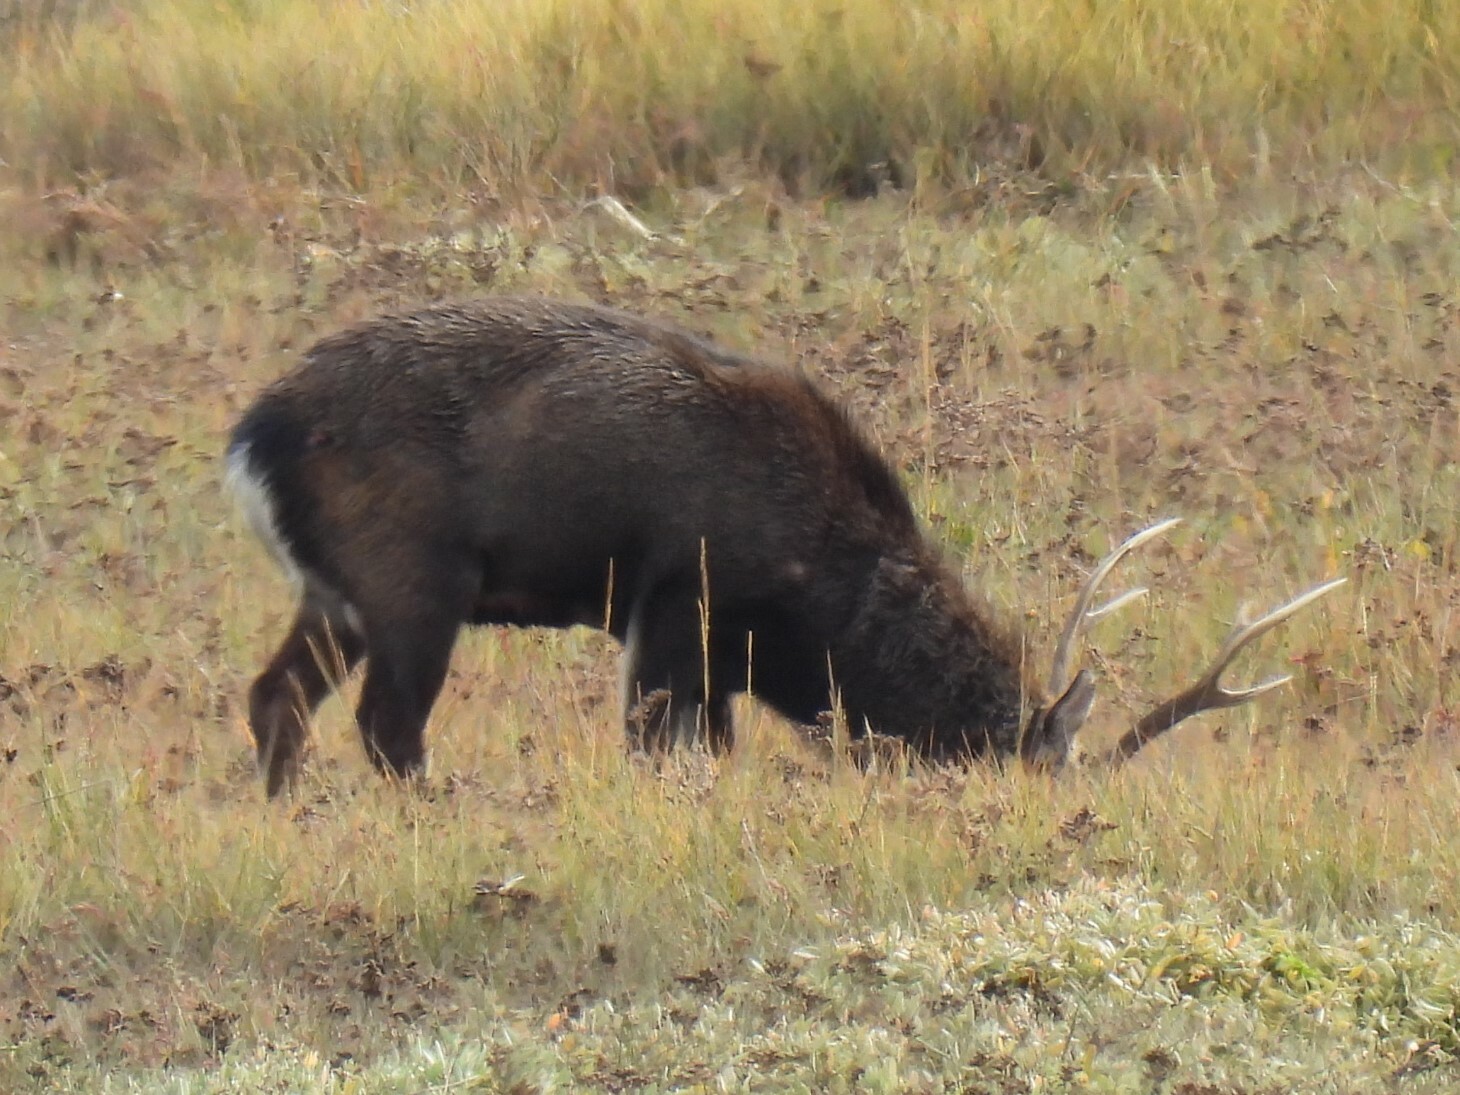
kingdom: Animalia
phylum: Chordata
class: Mammalia
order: Artiodactyla
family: Cervidae
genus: Cervus
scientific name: Cervus nippon
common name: Sika deer
